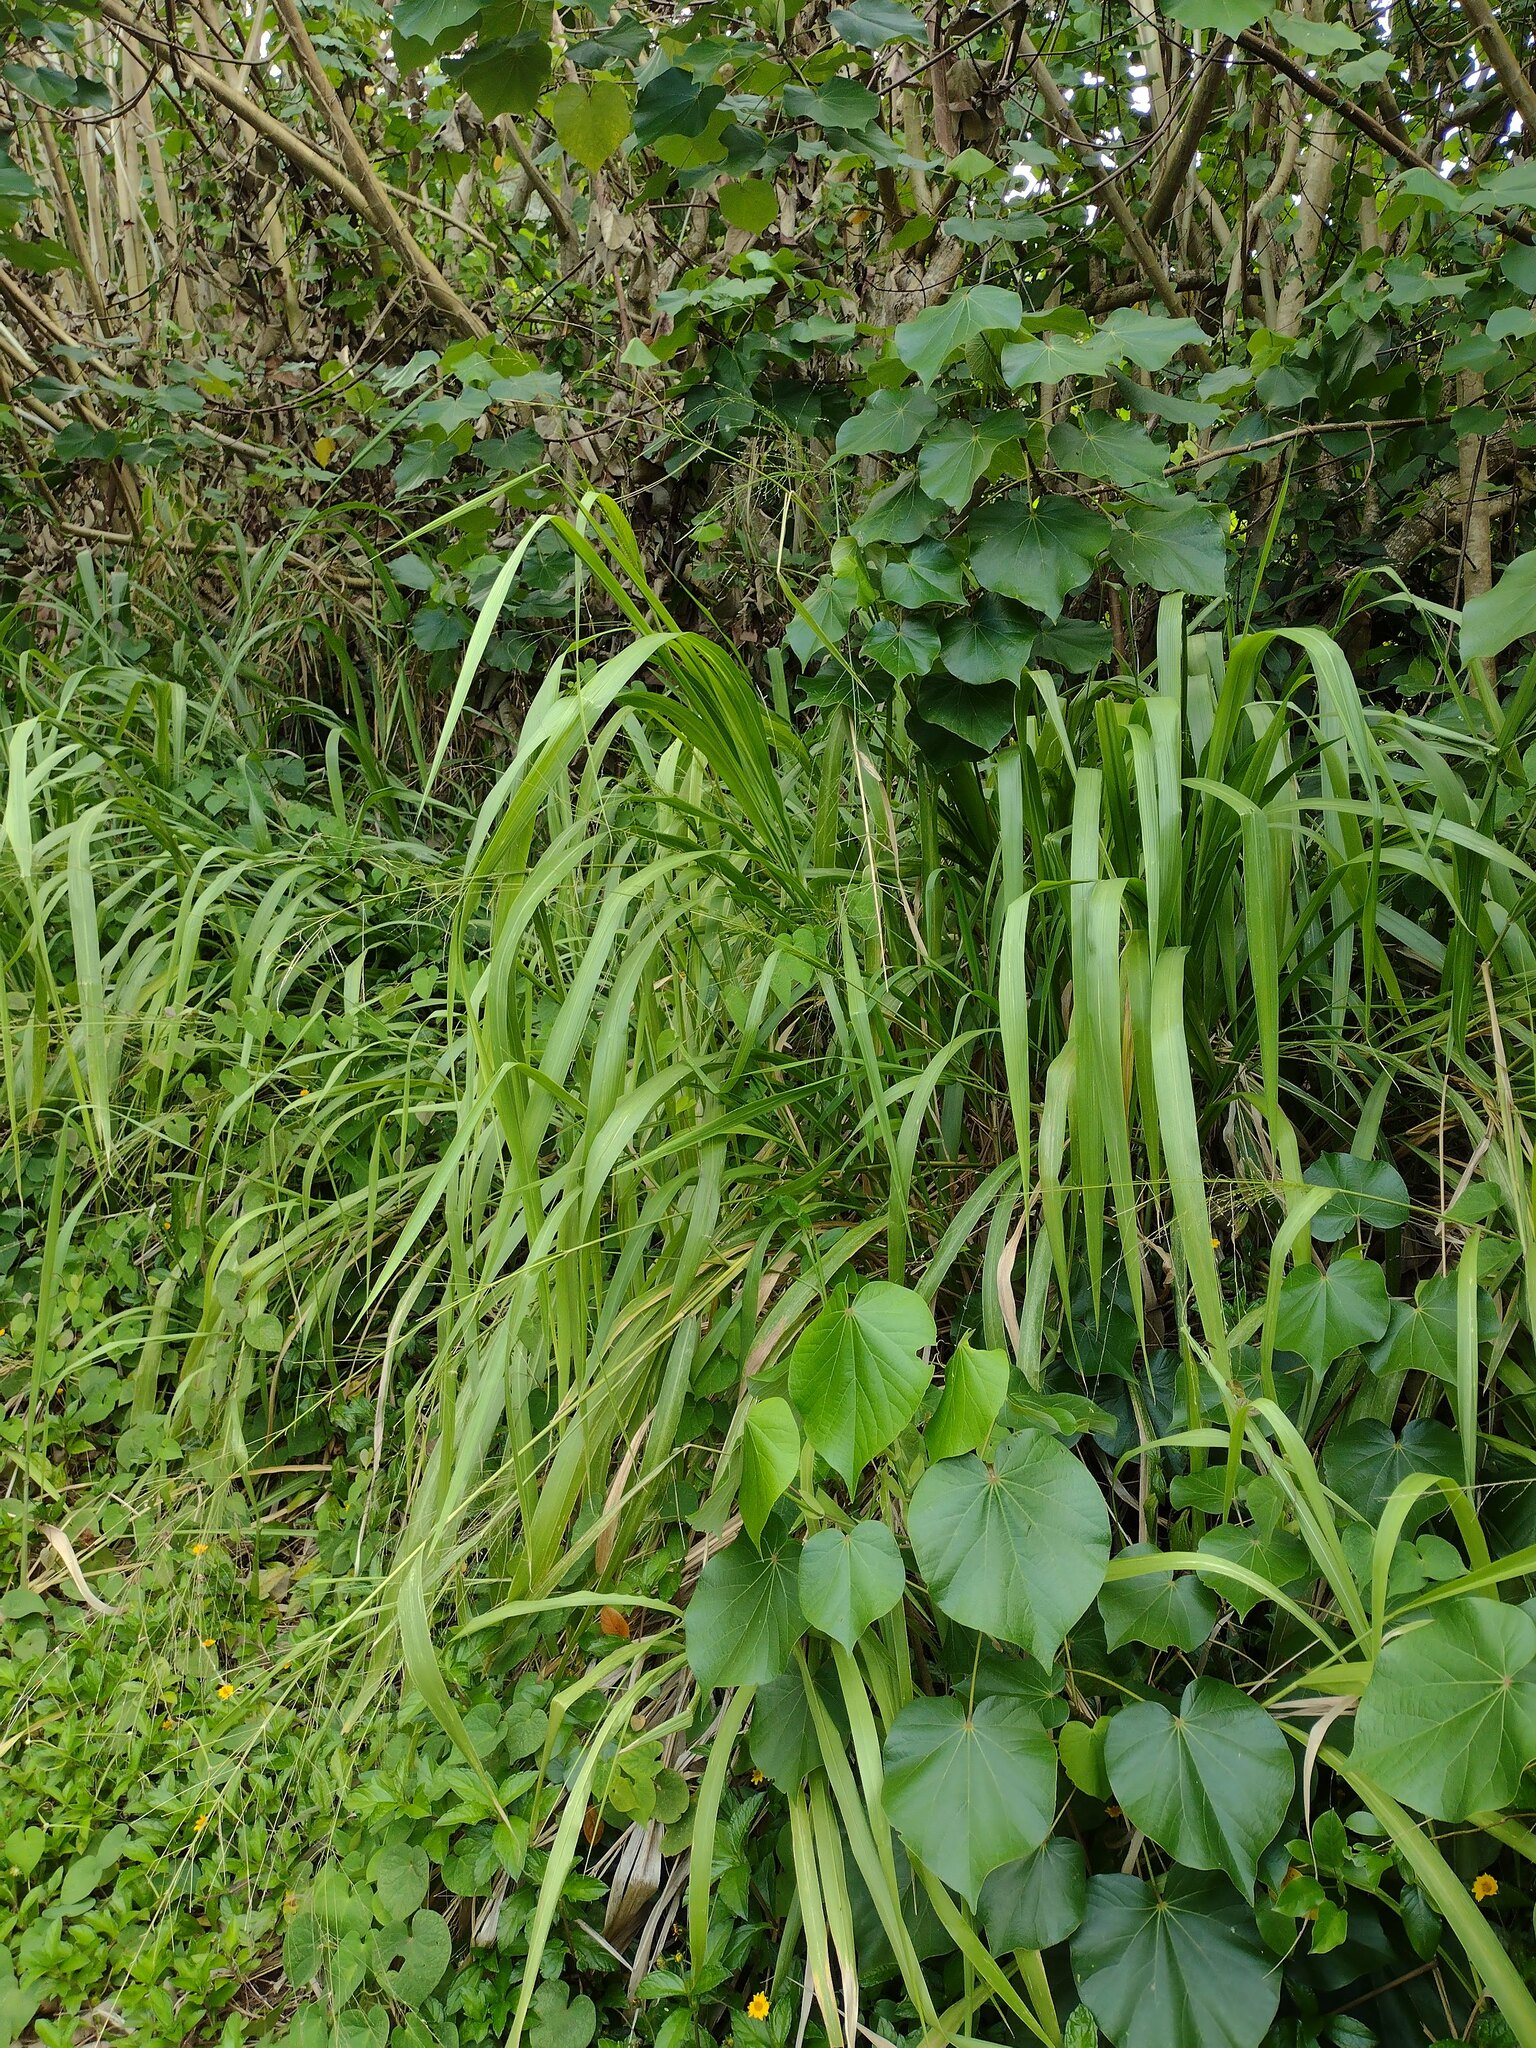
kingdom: Plantae
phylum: Tracheophyta
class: Liliopsida
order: Poales
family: Poaceae
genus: Megathyrsus
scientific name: Megathyrsus maximus
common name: Guineagrass
